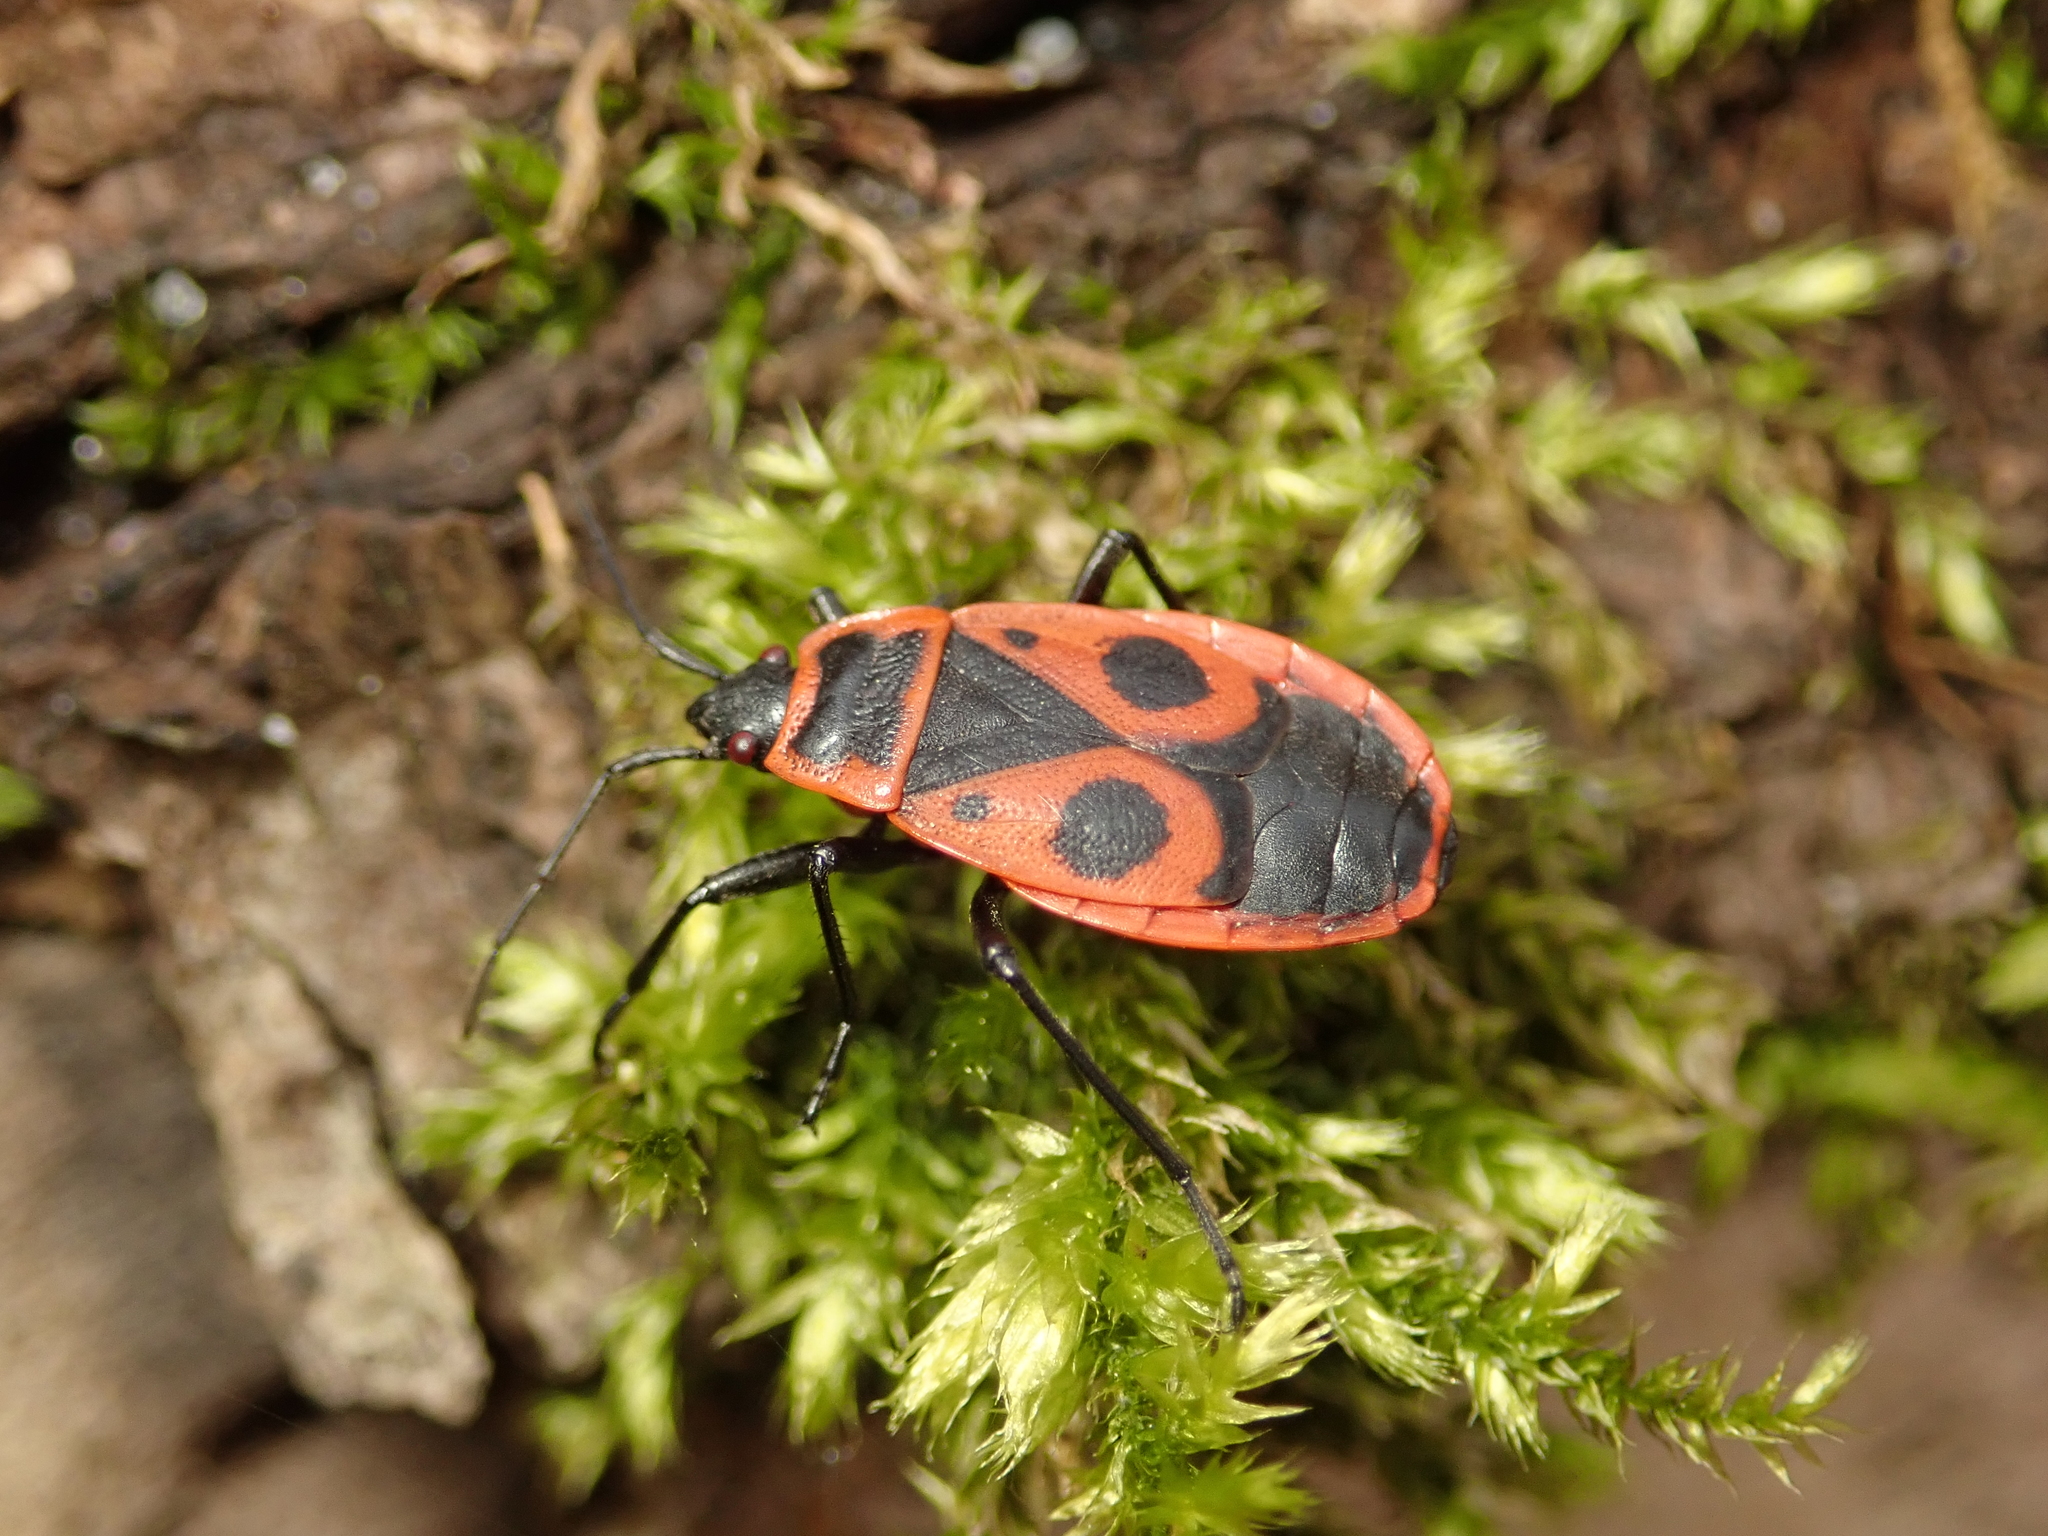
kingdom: Animalia
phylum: Arthropoda
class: Insecta
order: Hemiptera
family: Pyrrhocoridae
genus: Pyrrhocoris
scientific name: Pyrrhocoris apterus
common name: Firebug
